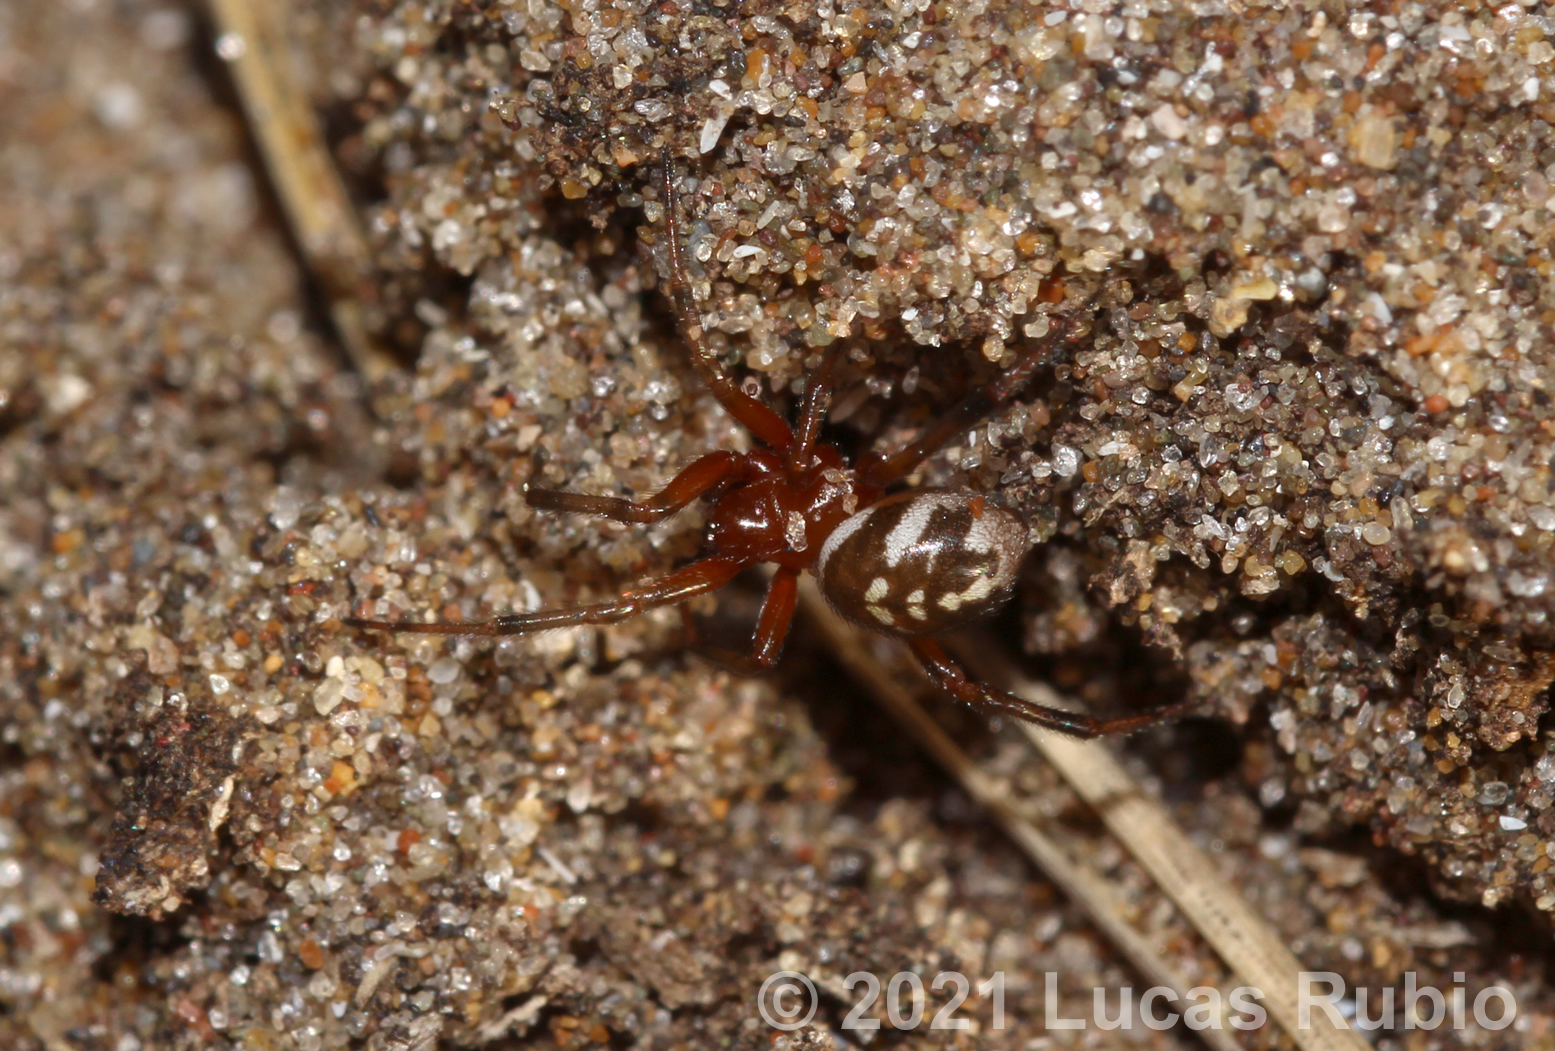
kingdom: Animalia
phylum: Arthropoda
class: Arachnida
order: Araneae
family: Theridiidae
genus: Steatoda
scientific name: Steatoda ancorata
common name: Cobweb spiders
